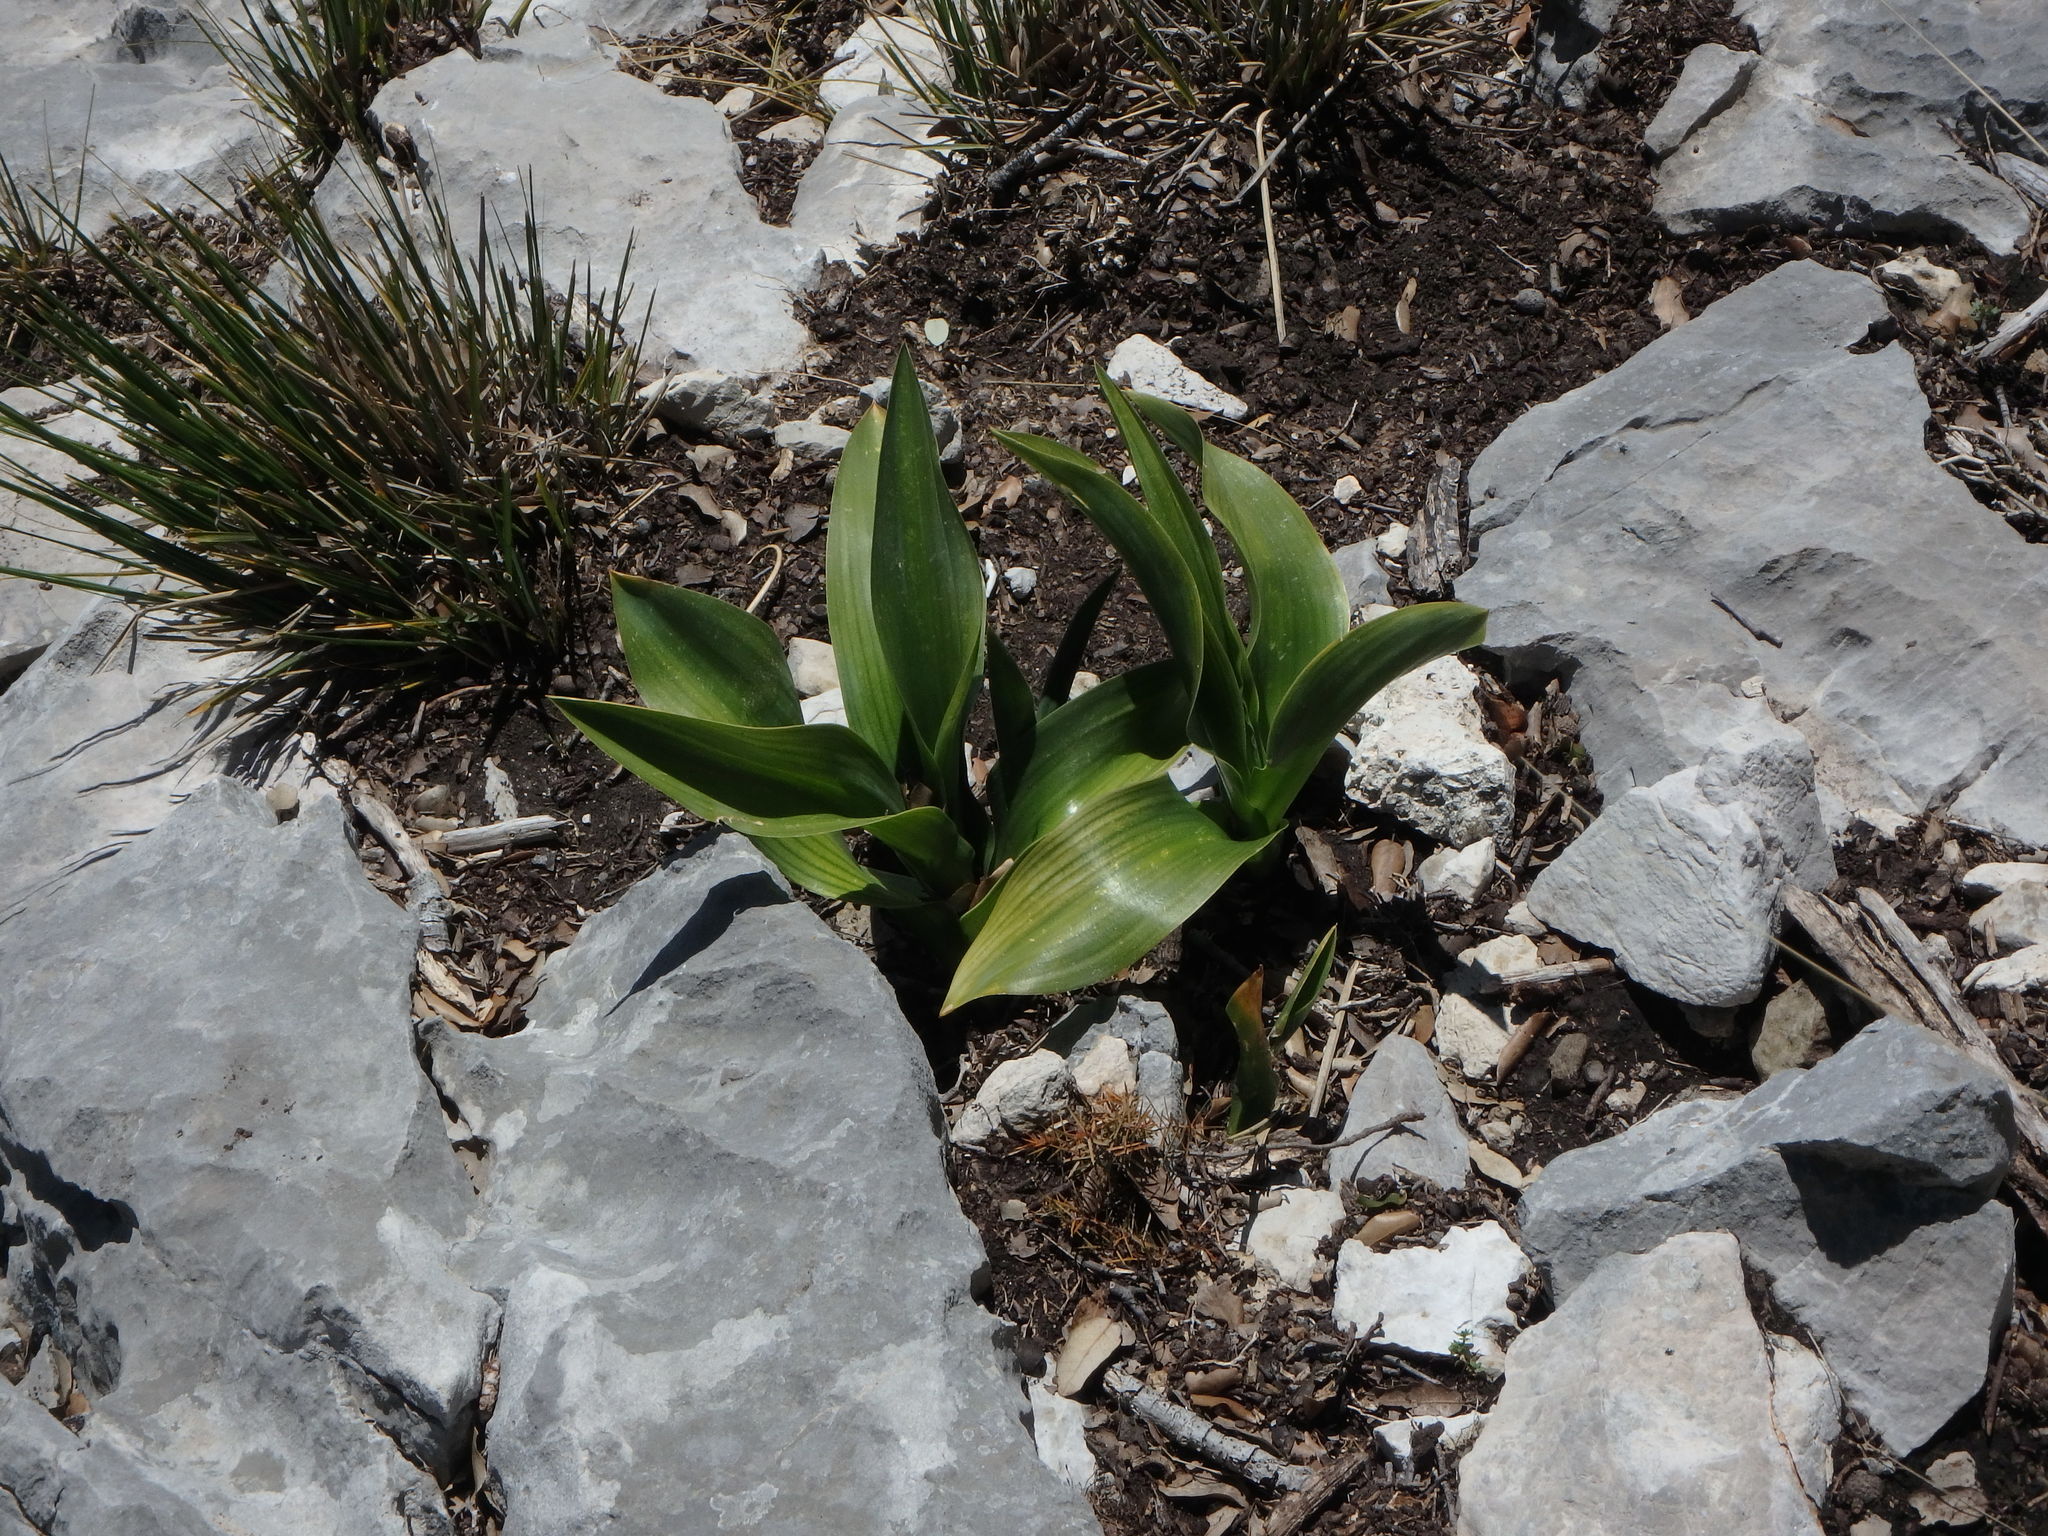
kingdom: Plantae
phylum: Tracheophyta
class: Liliopsida
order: Asparagales
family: Asparagaceae
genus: Drimia
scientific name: Drimia maritima
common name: Maritime squill
